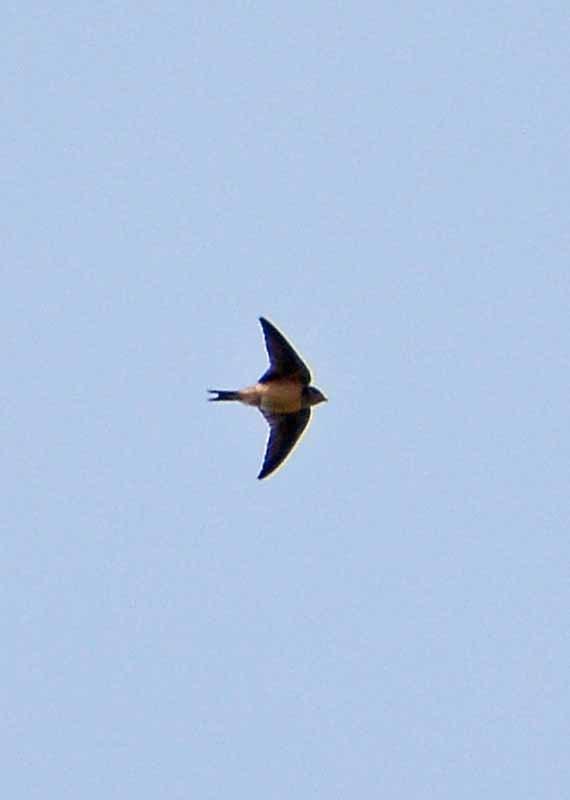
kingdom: Animalia
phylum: Chordata
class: Aves
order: Passeriformes
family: Hirundinidae
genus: Hirundo
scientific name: Hirundo rustica
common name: Barn swallow
